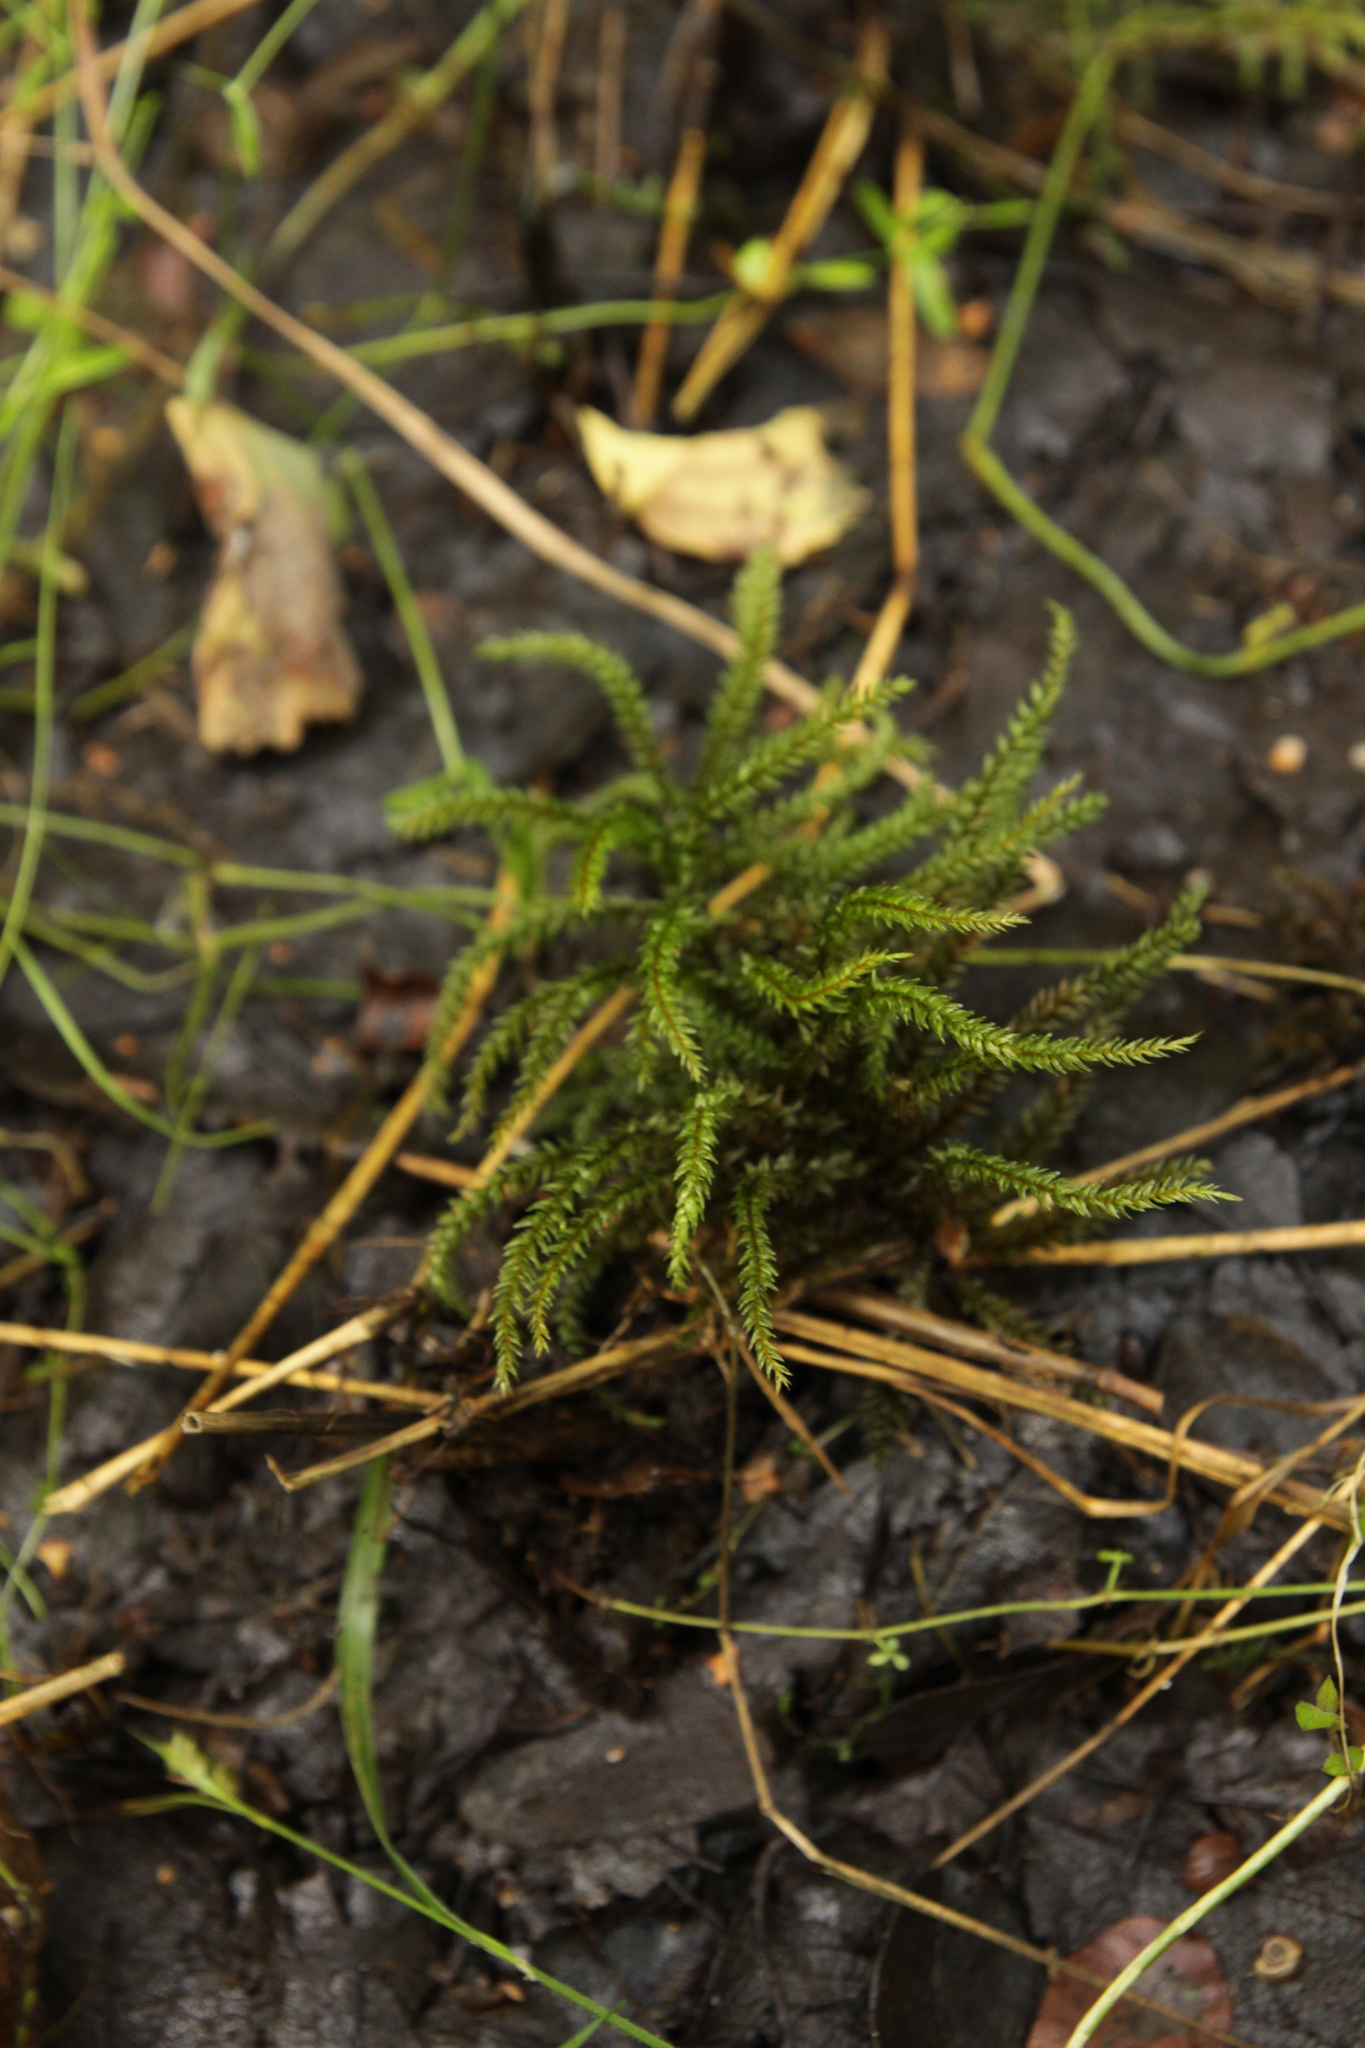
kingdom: Plantae
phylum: Bryophyta
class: Bryopsida
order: Hypnales
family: Climaciaceae
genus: Climacium
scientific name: Climacium dendroides
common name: Northern tree moss
